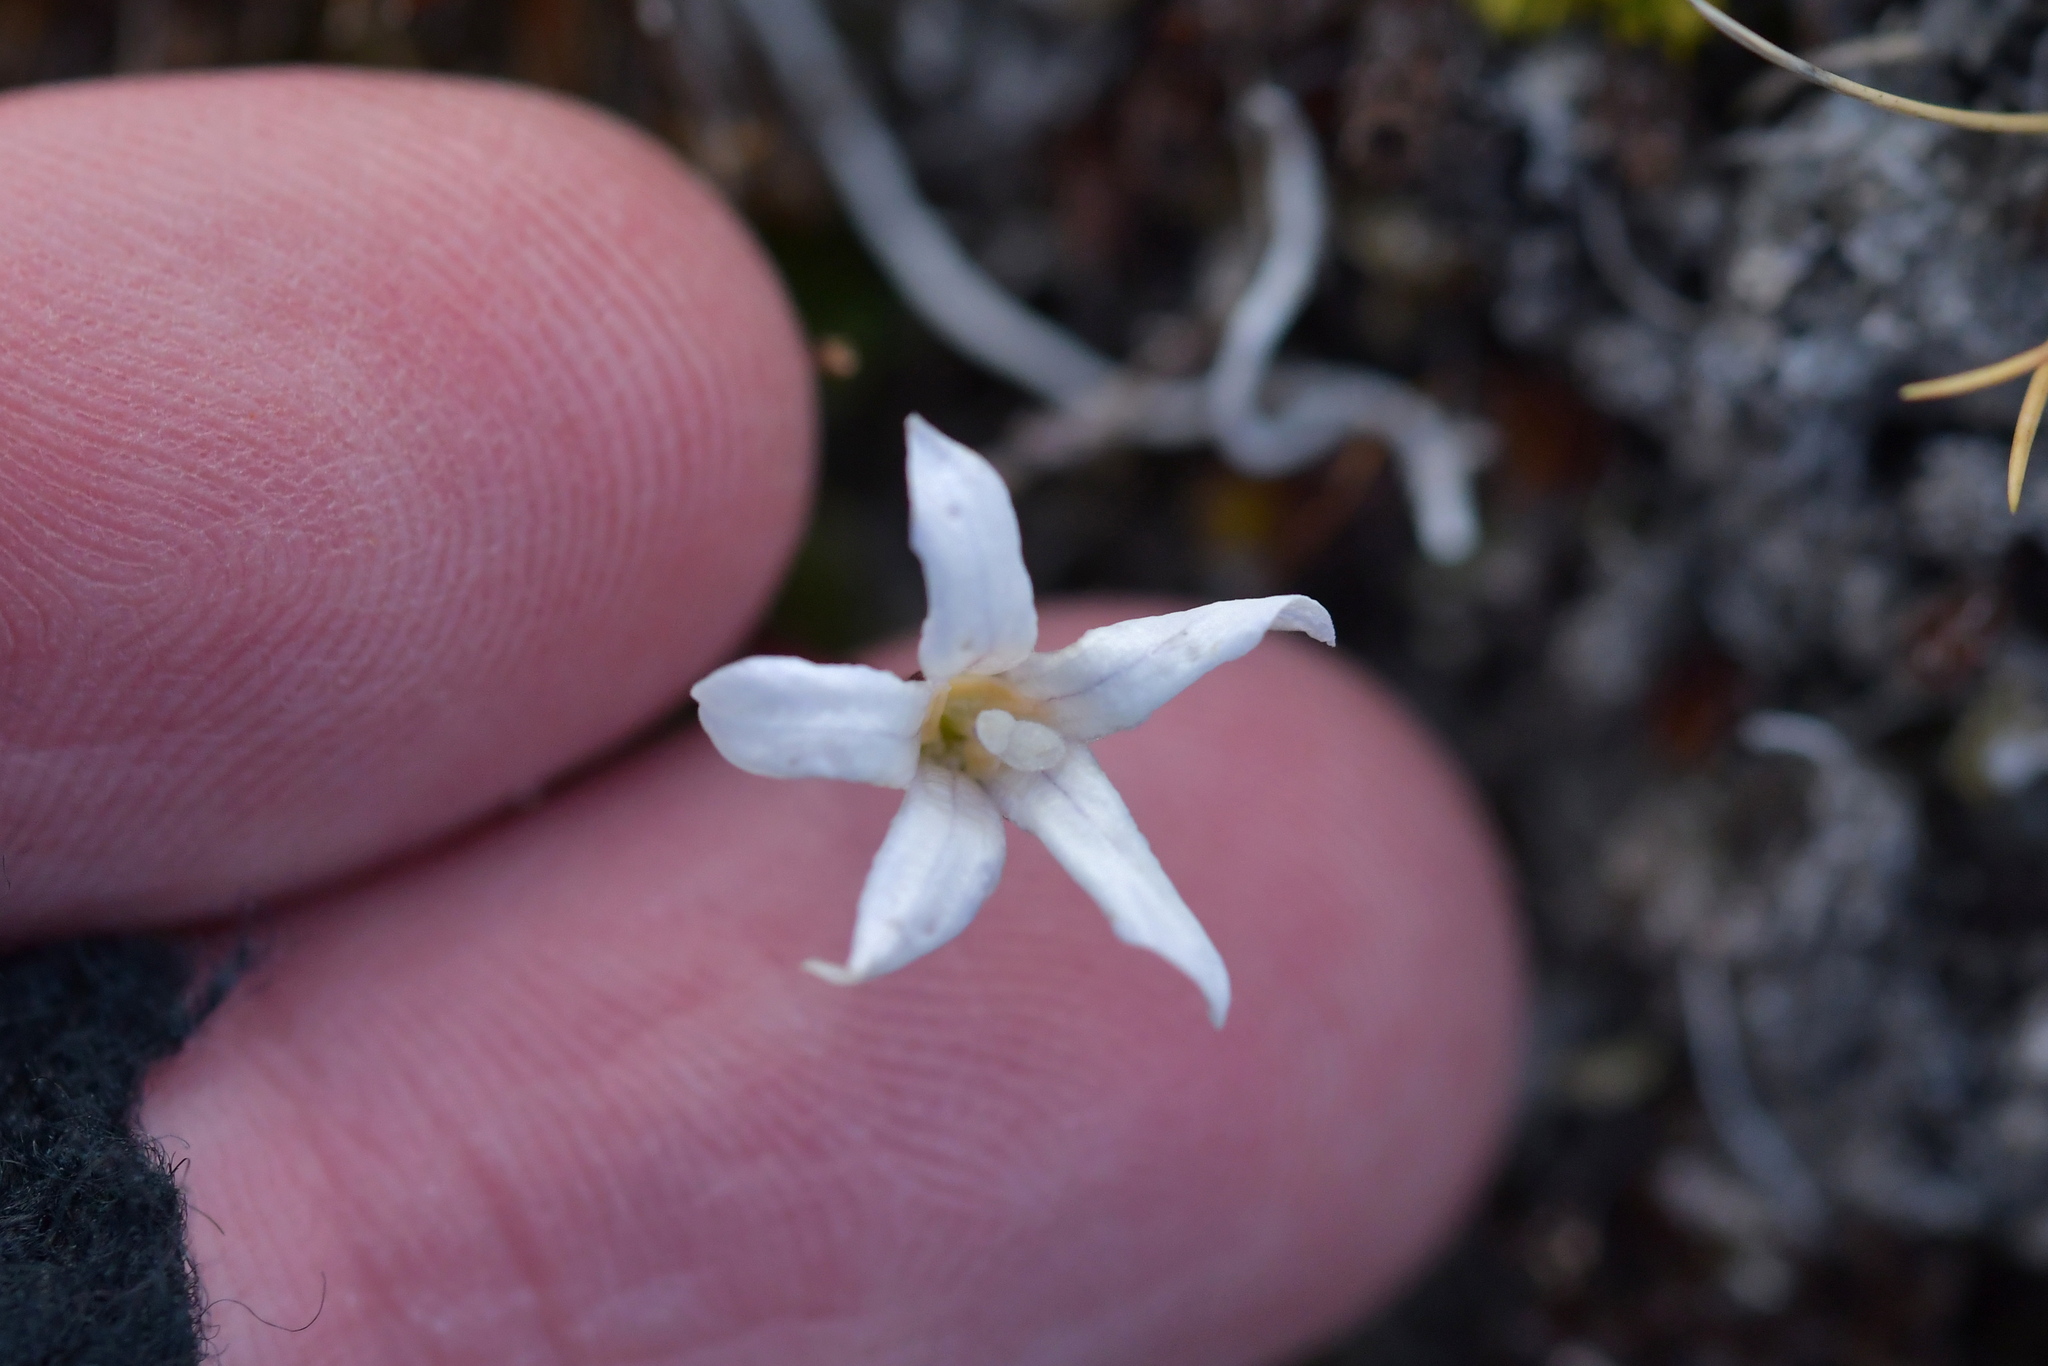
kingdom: Plantae
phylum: Tracheophyta
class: Magnoliopsida
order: Asterales
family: Campanulaceae
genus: Wahlenbergia
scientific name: Wahlenbergia albomarginata
